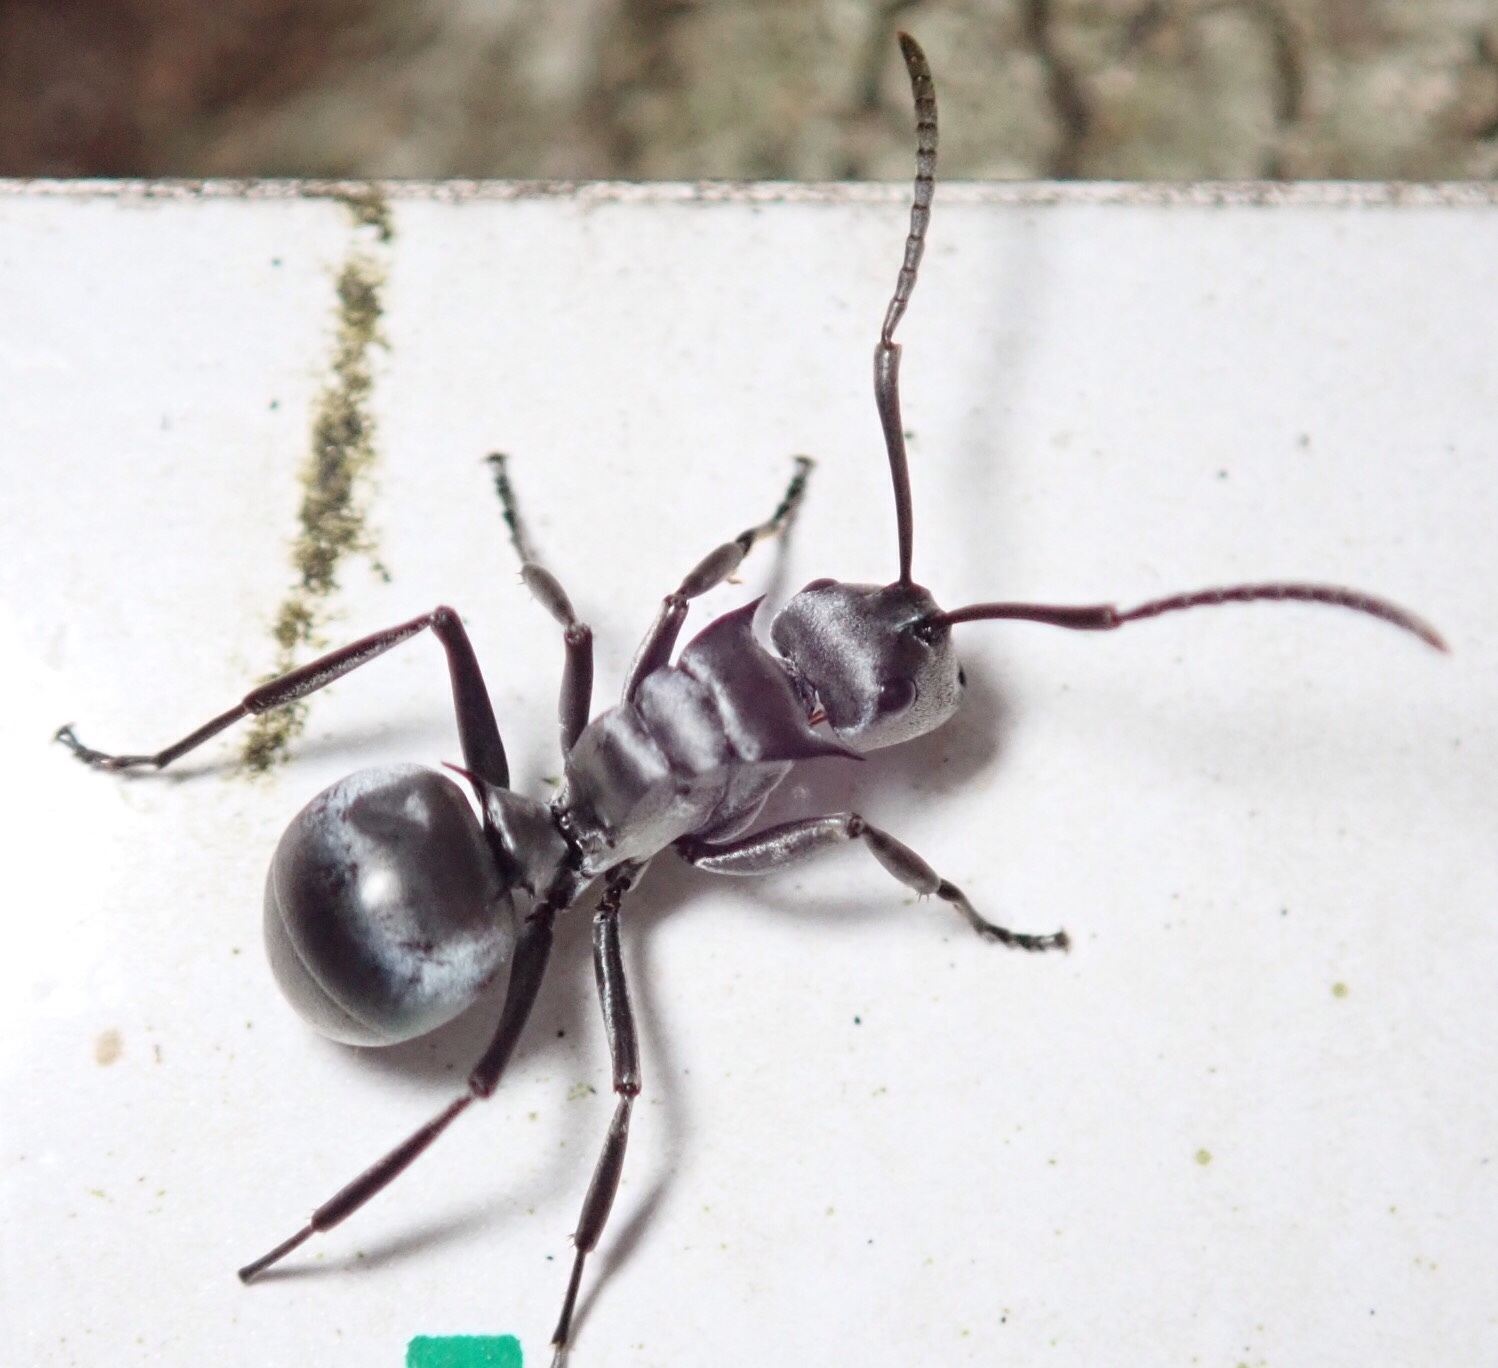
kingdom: Animalia
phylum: Arthropoda
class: Insecta
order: Hymenoptera
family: Formicidae
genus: Polyrhachis
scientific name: Polyrhachis schlueteri
